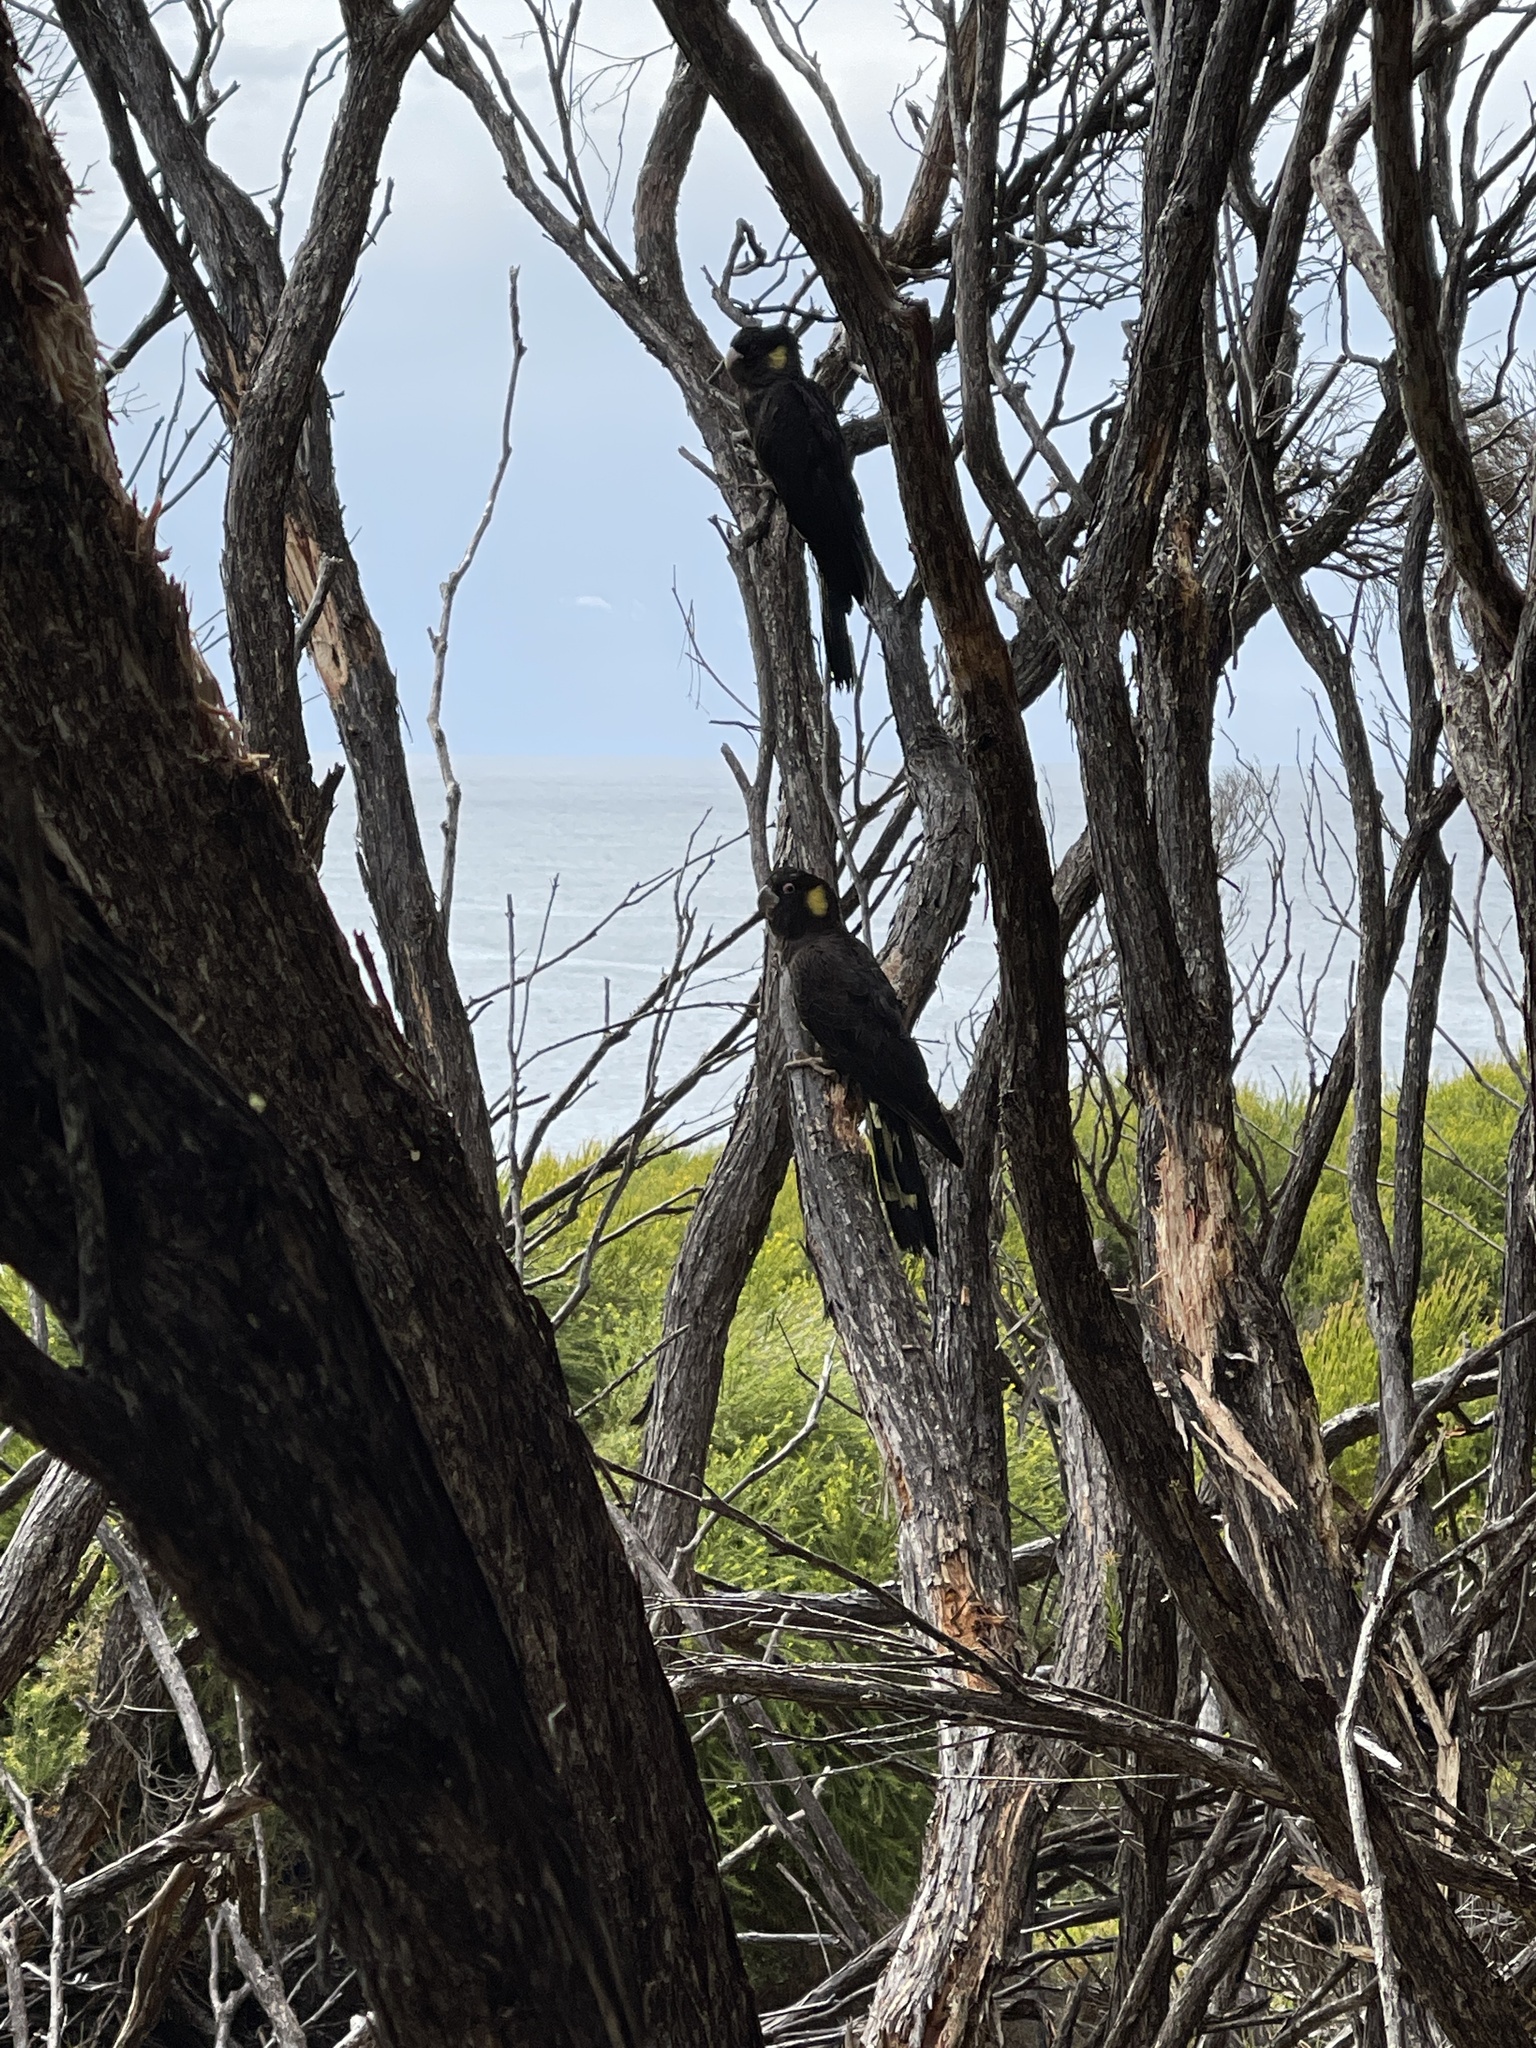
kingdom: Animalia
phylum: Chordata
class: Aves
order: Psittaciformes
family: Cacatuidae
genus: Zanda
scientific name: Zanda funerea
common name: Yellow-tailed black-cockatoo
